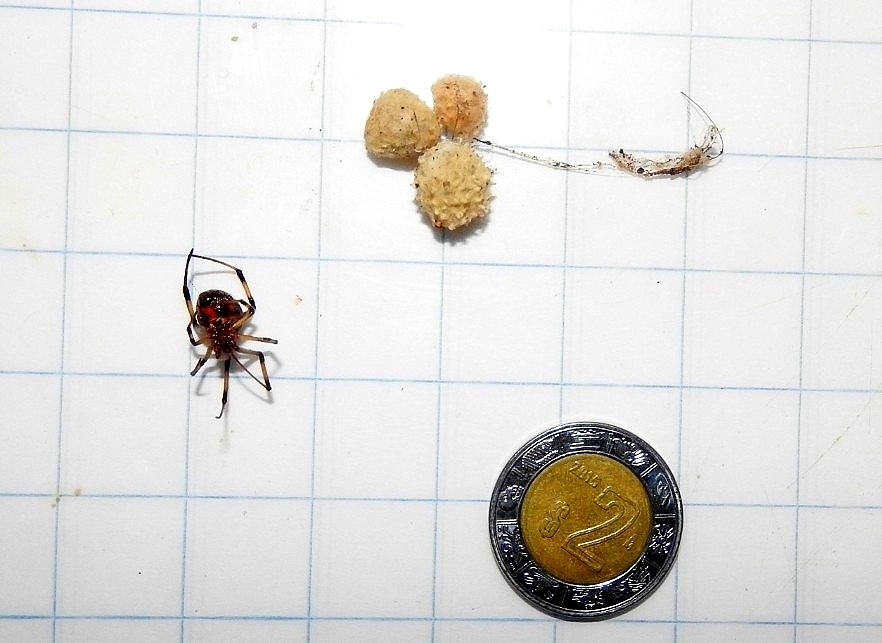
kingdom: Animalia
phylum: Arthropoda
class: Arachnida
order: Araneae
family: Theridiidae
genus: Latrodectus
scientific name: Latrodectus geometricus
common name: Brown widow spider
